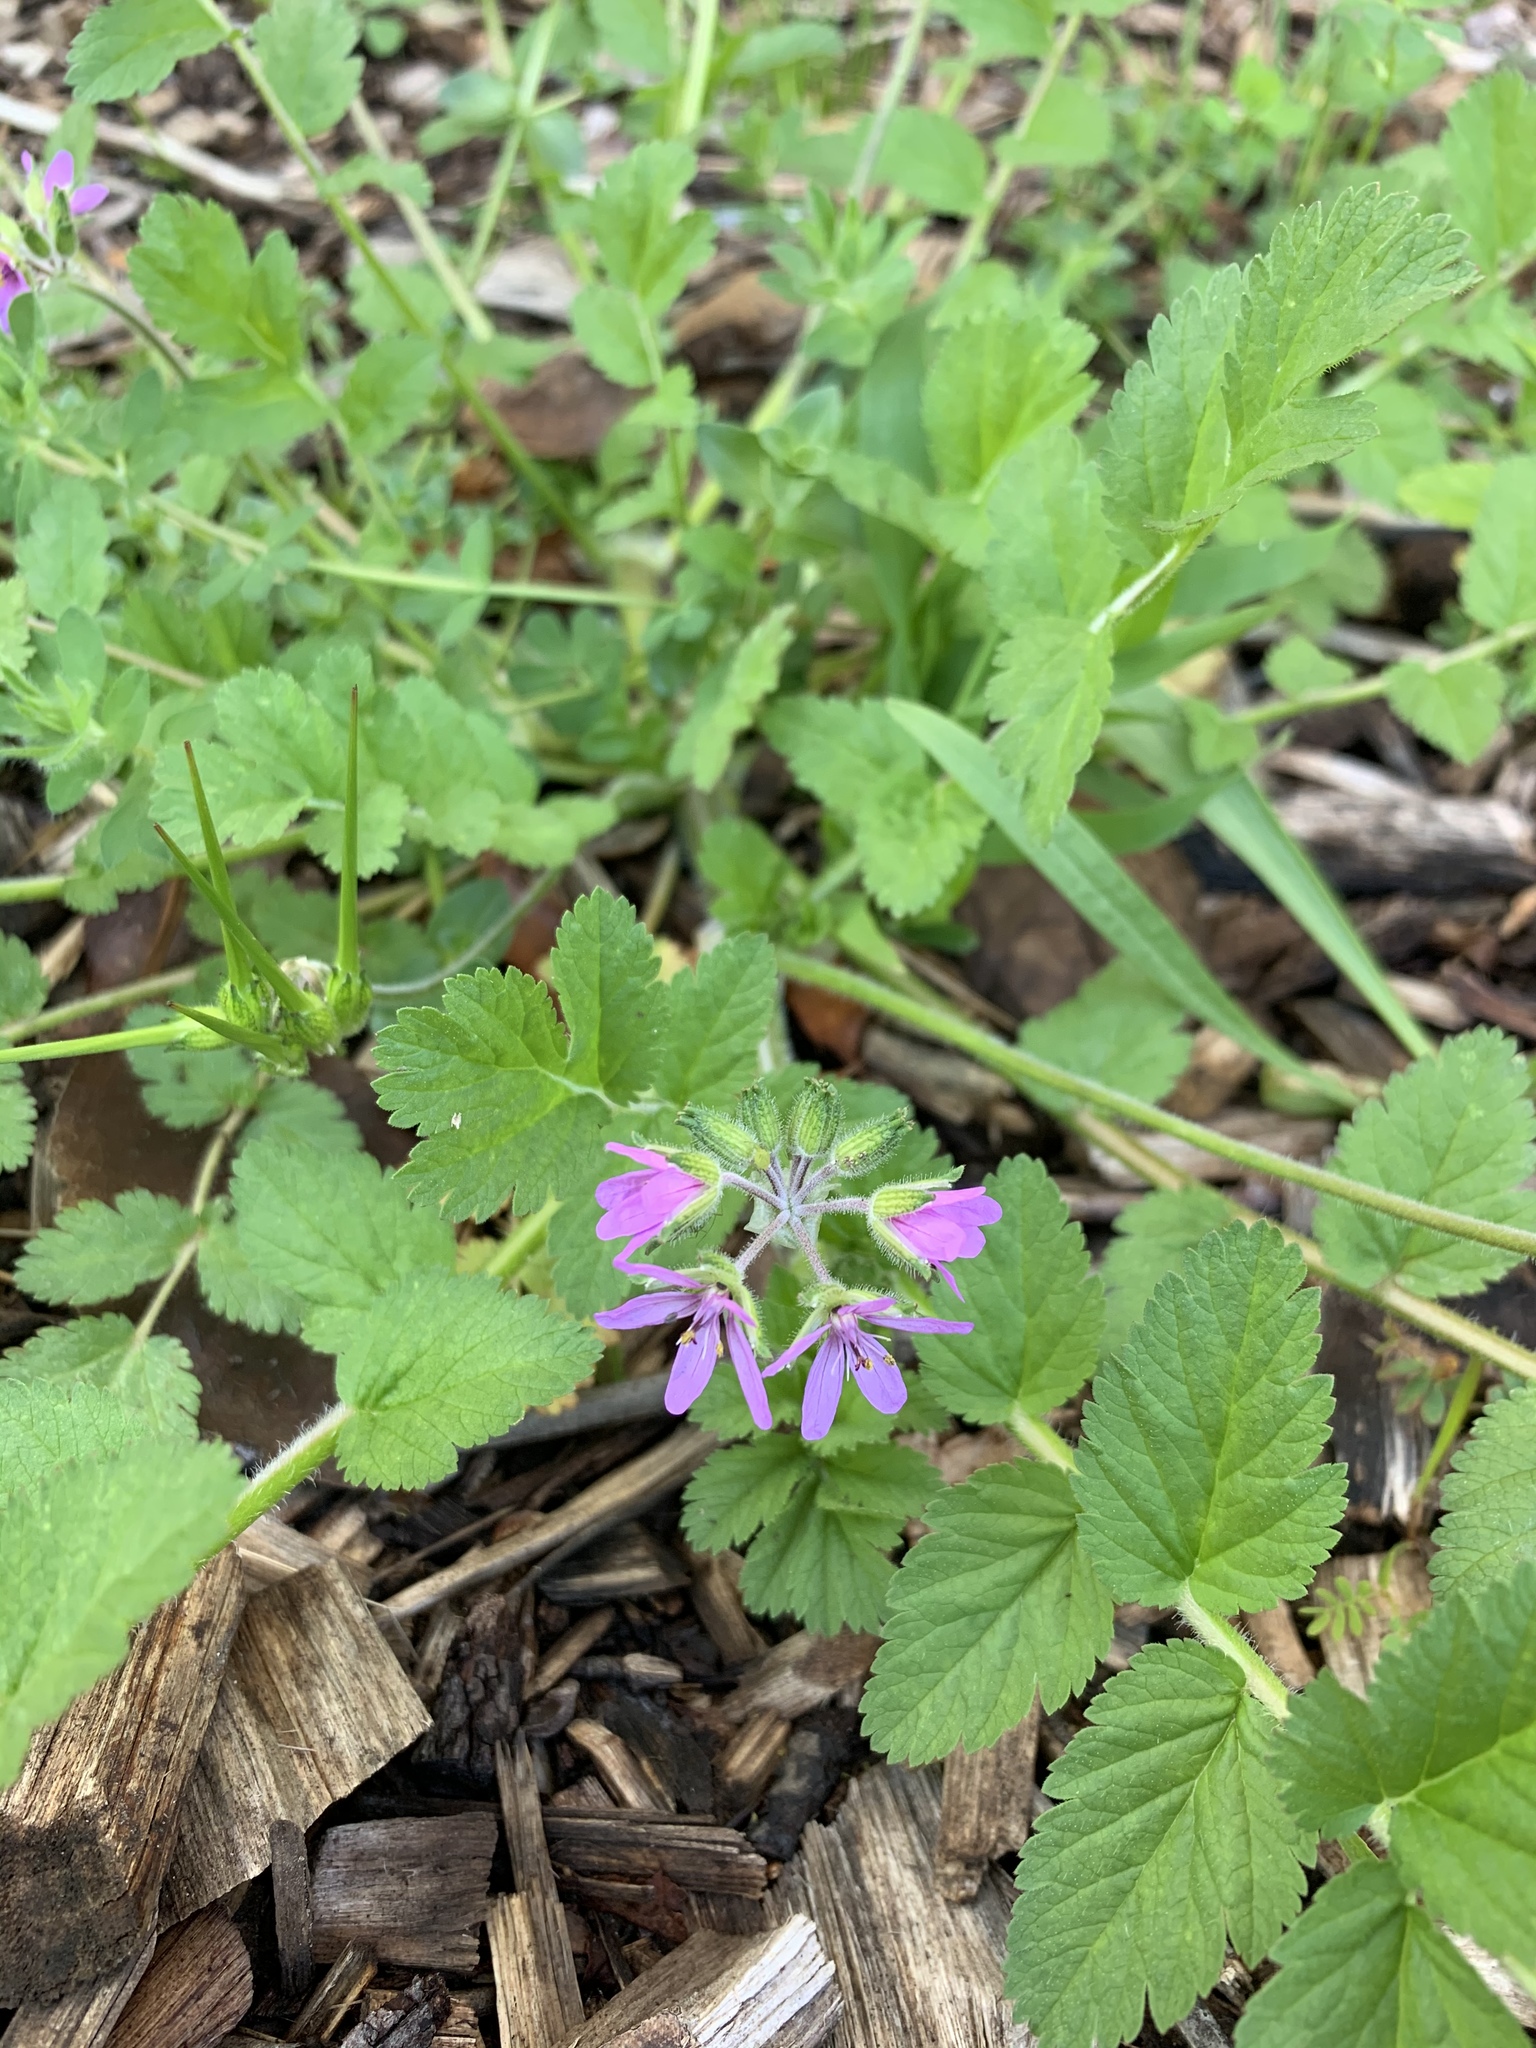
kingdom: Plantae
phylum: Tracheophyta
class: Magnoliopsida
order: Geraniales
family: Geraniaceae
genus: Erodium
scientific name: Erodium moschatum
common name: Musk stork's-bill
